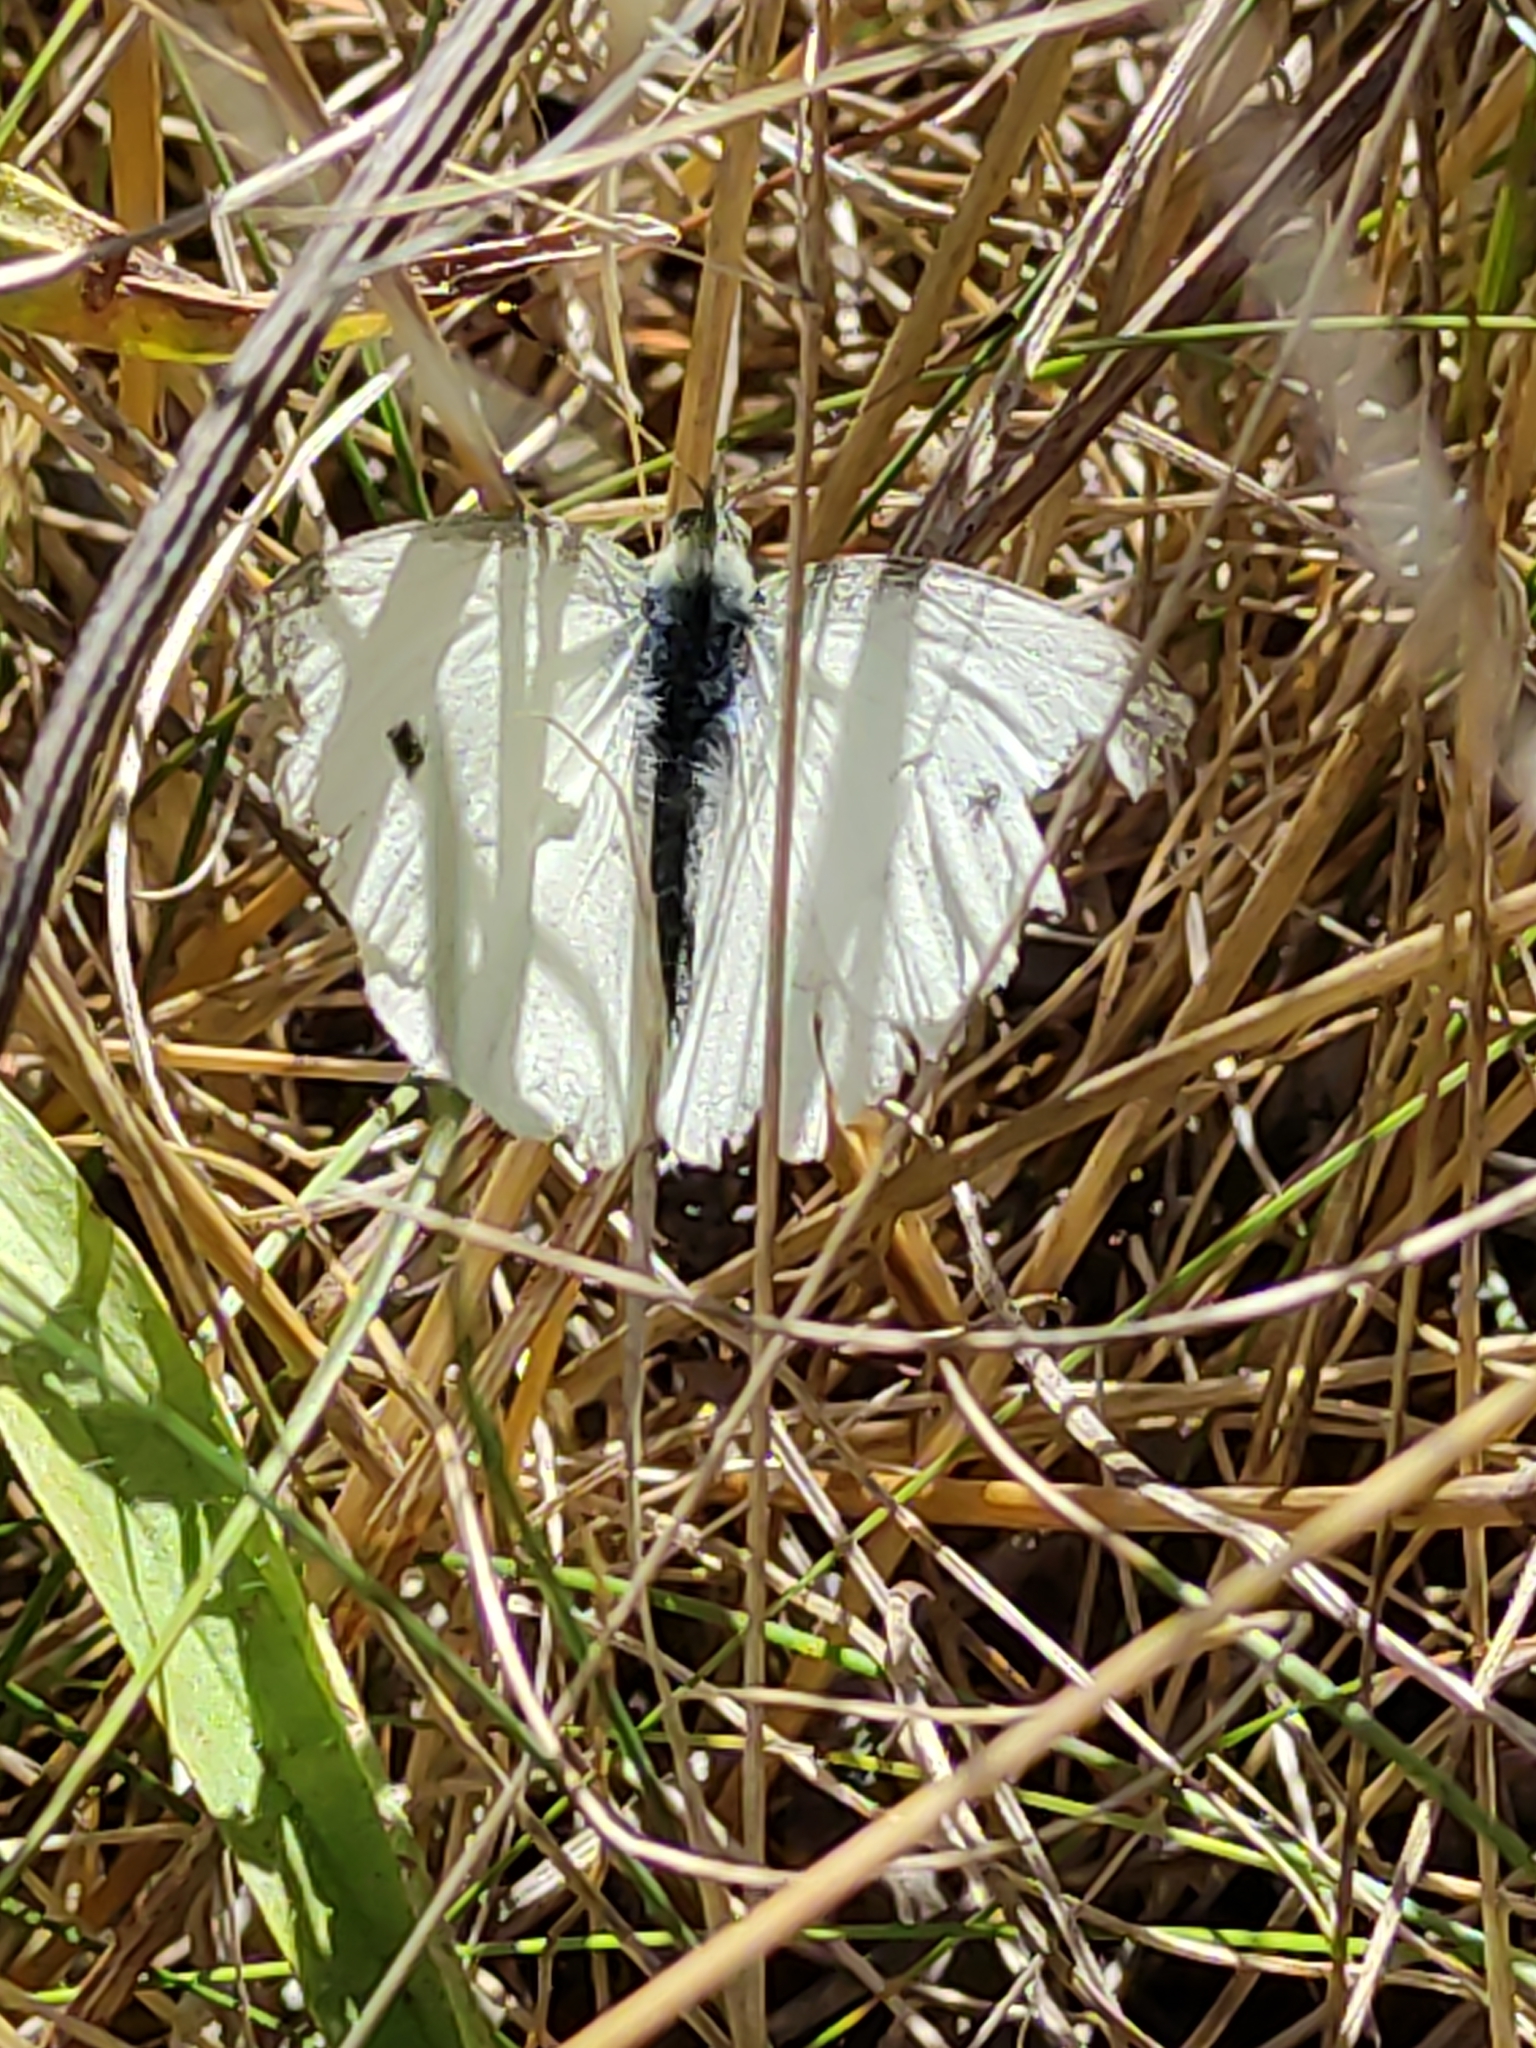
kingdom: Animalia
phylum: Arthropoda
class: Insecta
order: Lepidoptera
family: Pieridae
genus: Pieris
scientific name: Pieris rapae
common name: Small white
